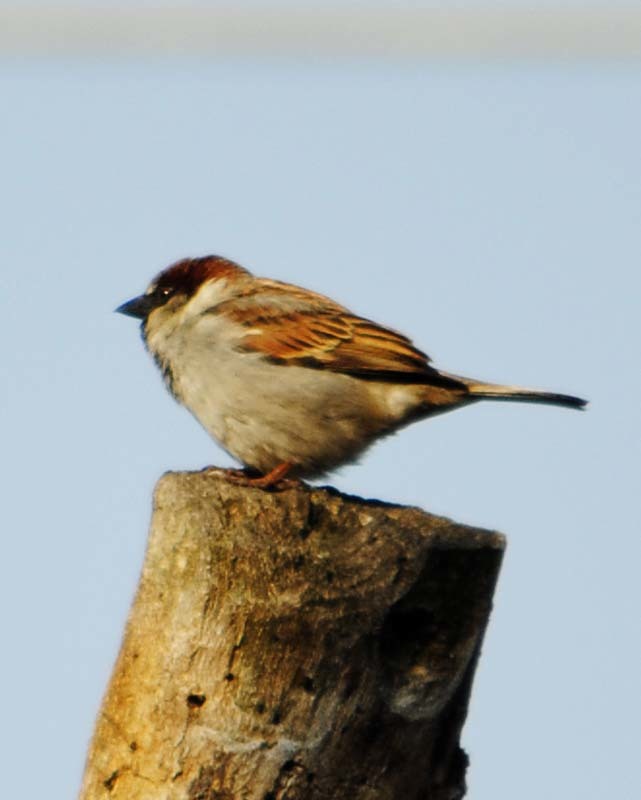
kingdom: Animalia
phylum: Chordata
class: Aves
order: Passeriformes
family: Passeridae
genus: Passer
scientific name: Passer domesticus
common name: House sparrow
